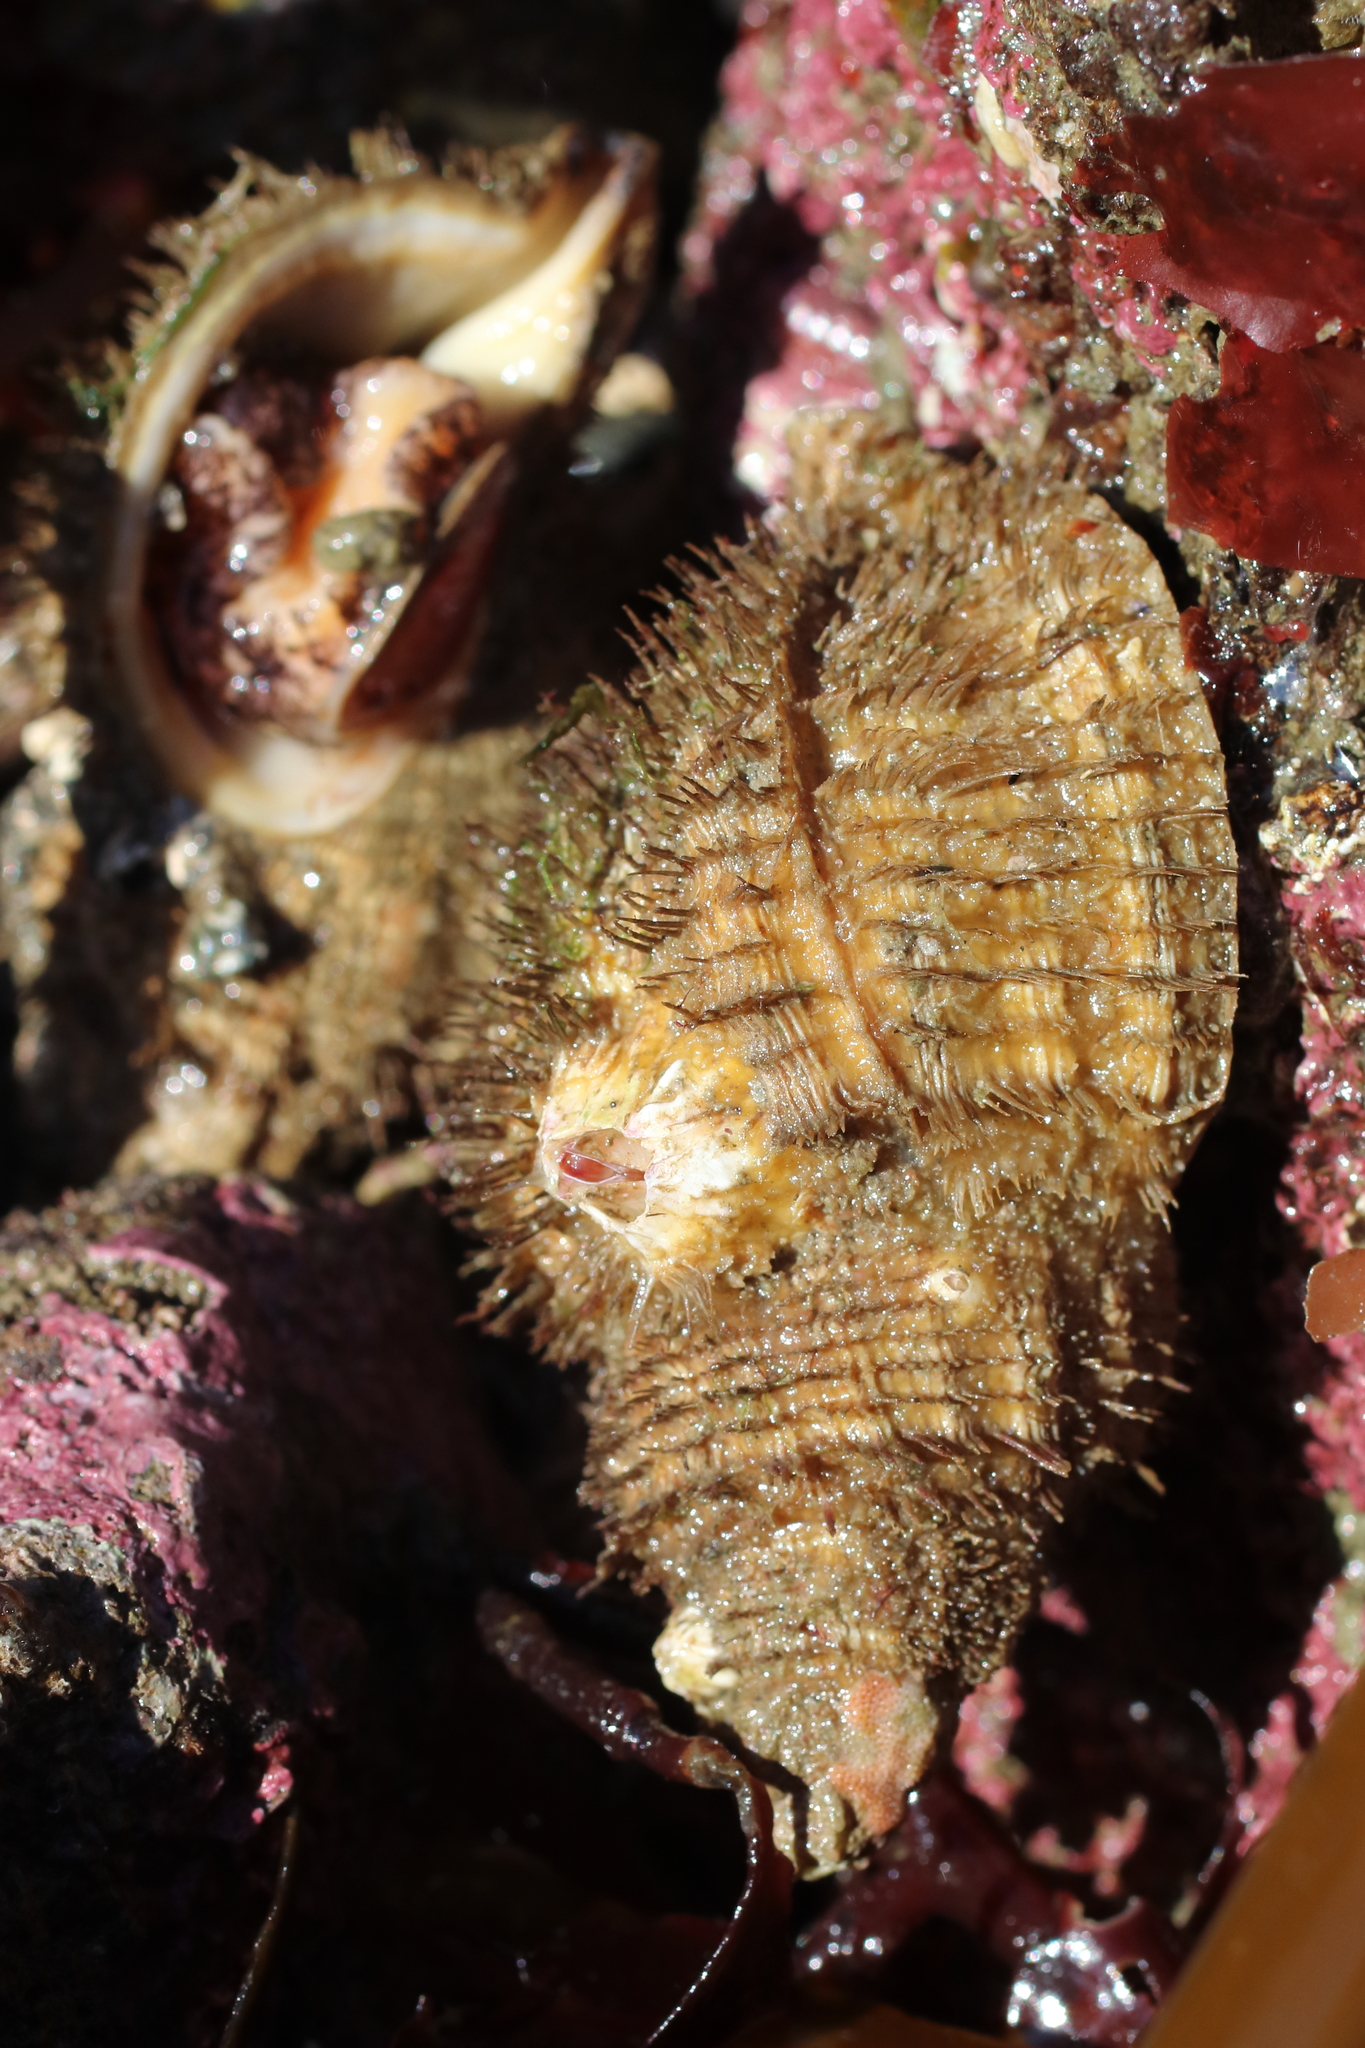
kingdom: Animalia
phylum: Mollusca
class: Gastropoda
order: Littorinimorpha
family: Cymatiidae
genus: Fusitriton
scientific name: Fusitriton oregonensis
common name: Oregon hairy triton
